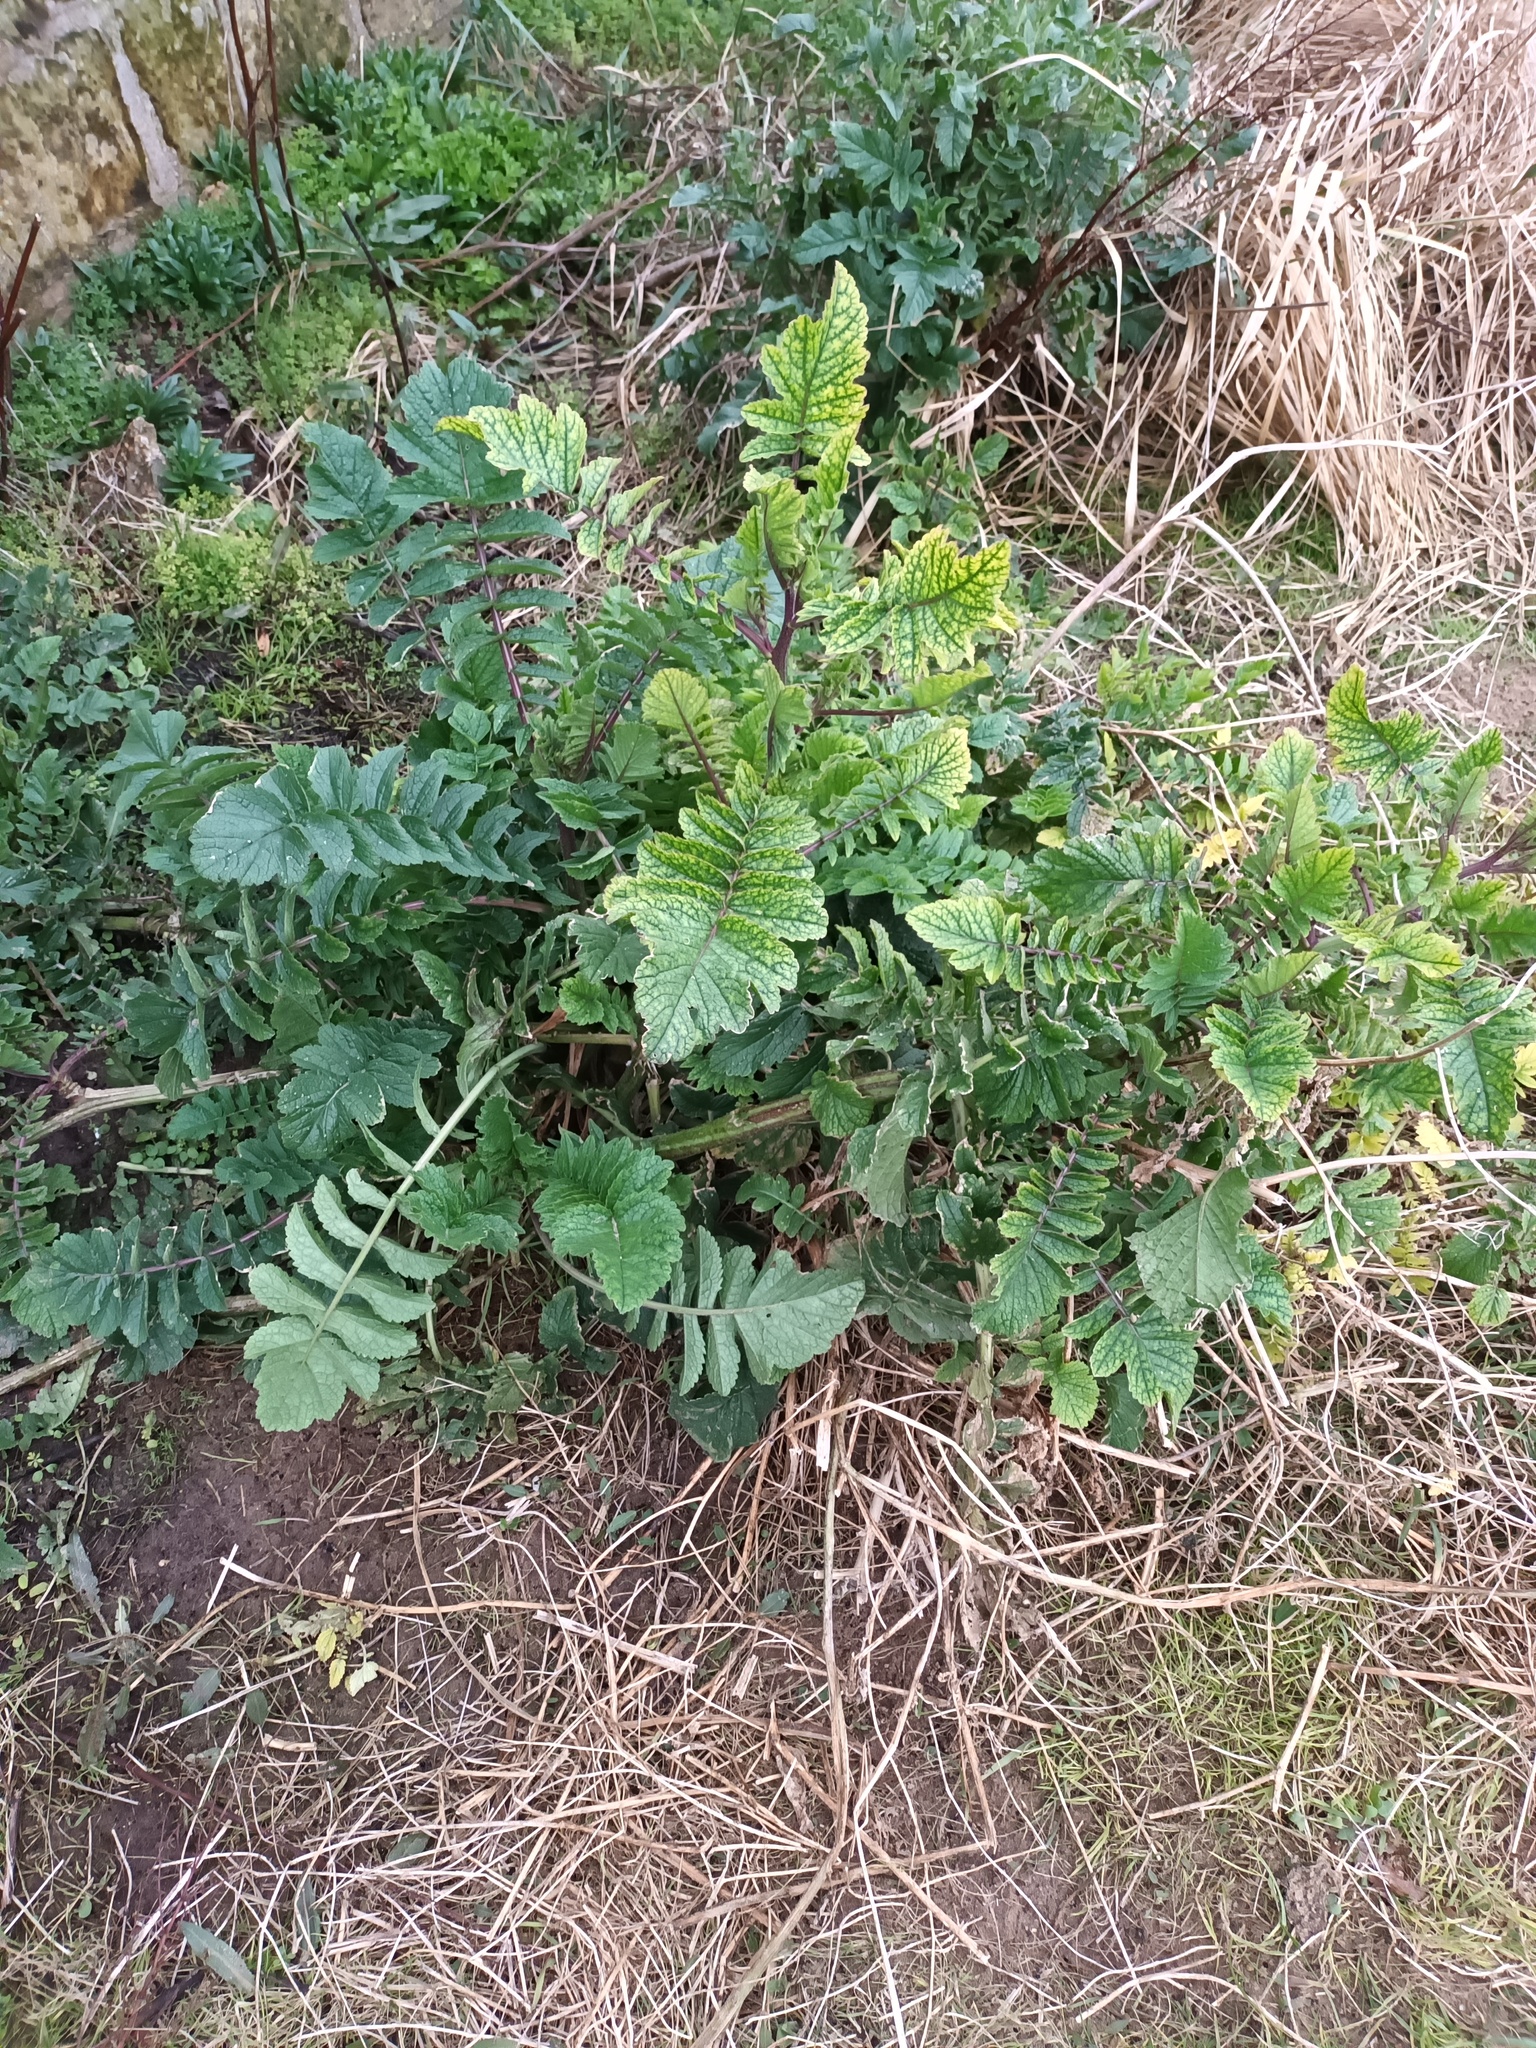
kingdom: Plantae
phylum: Tracheophyta
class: Magnoliopsida
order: Brassicales
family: Brassicaceae
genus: Raphanus
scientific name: Raphanus raphanistrum
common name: Wild radish
